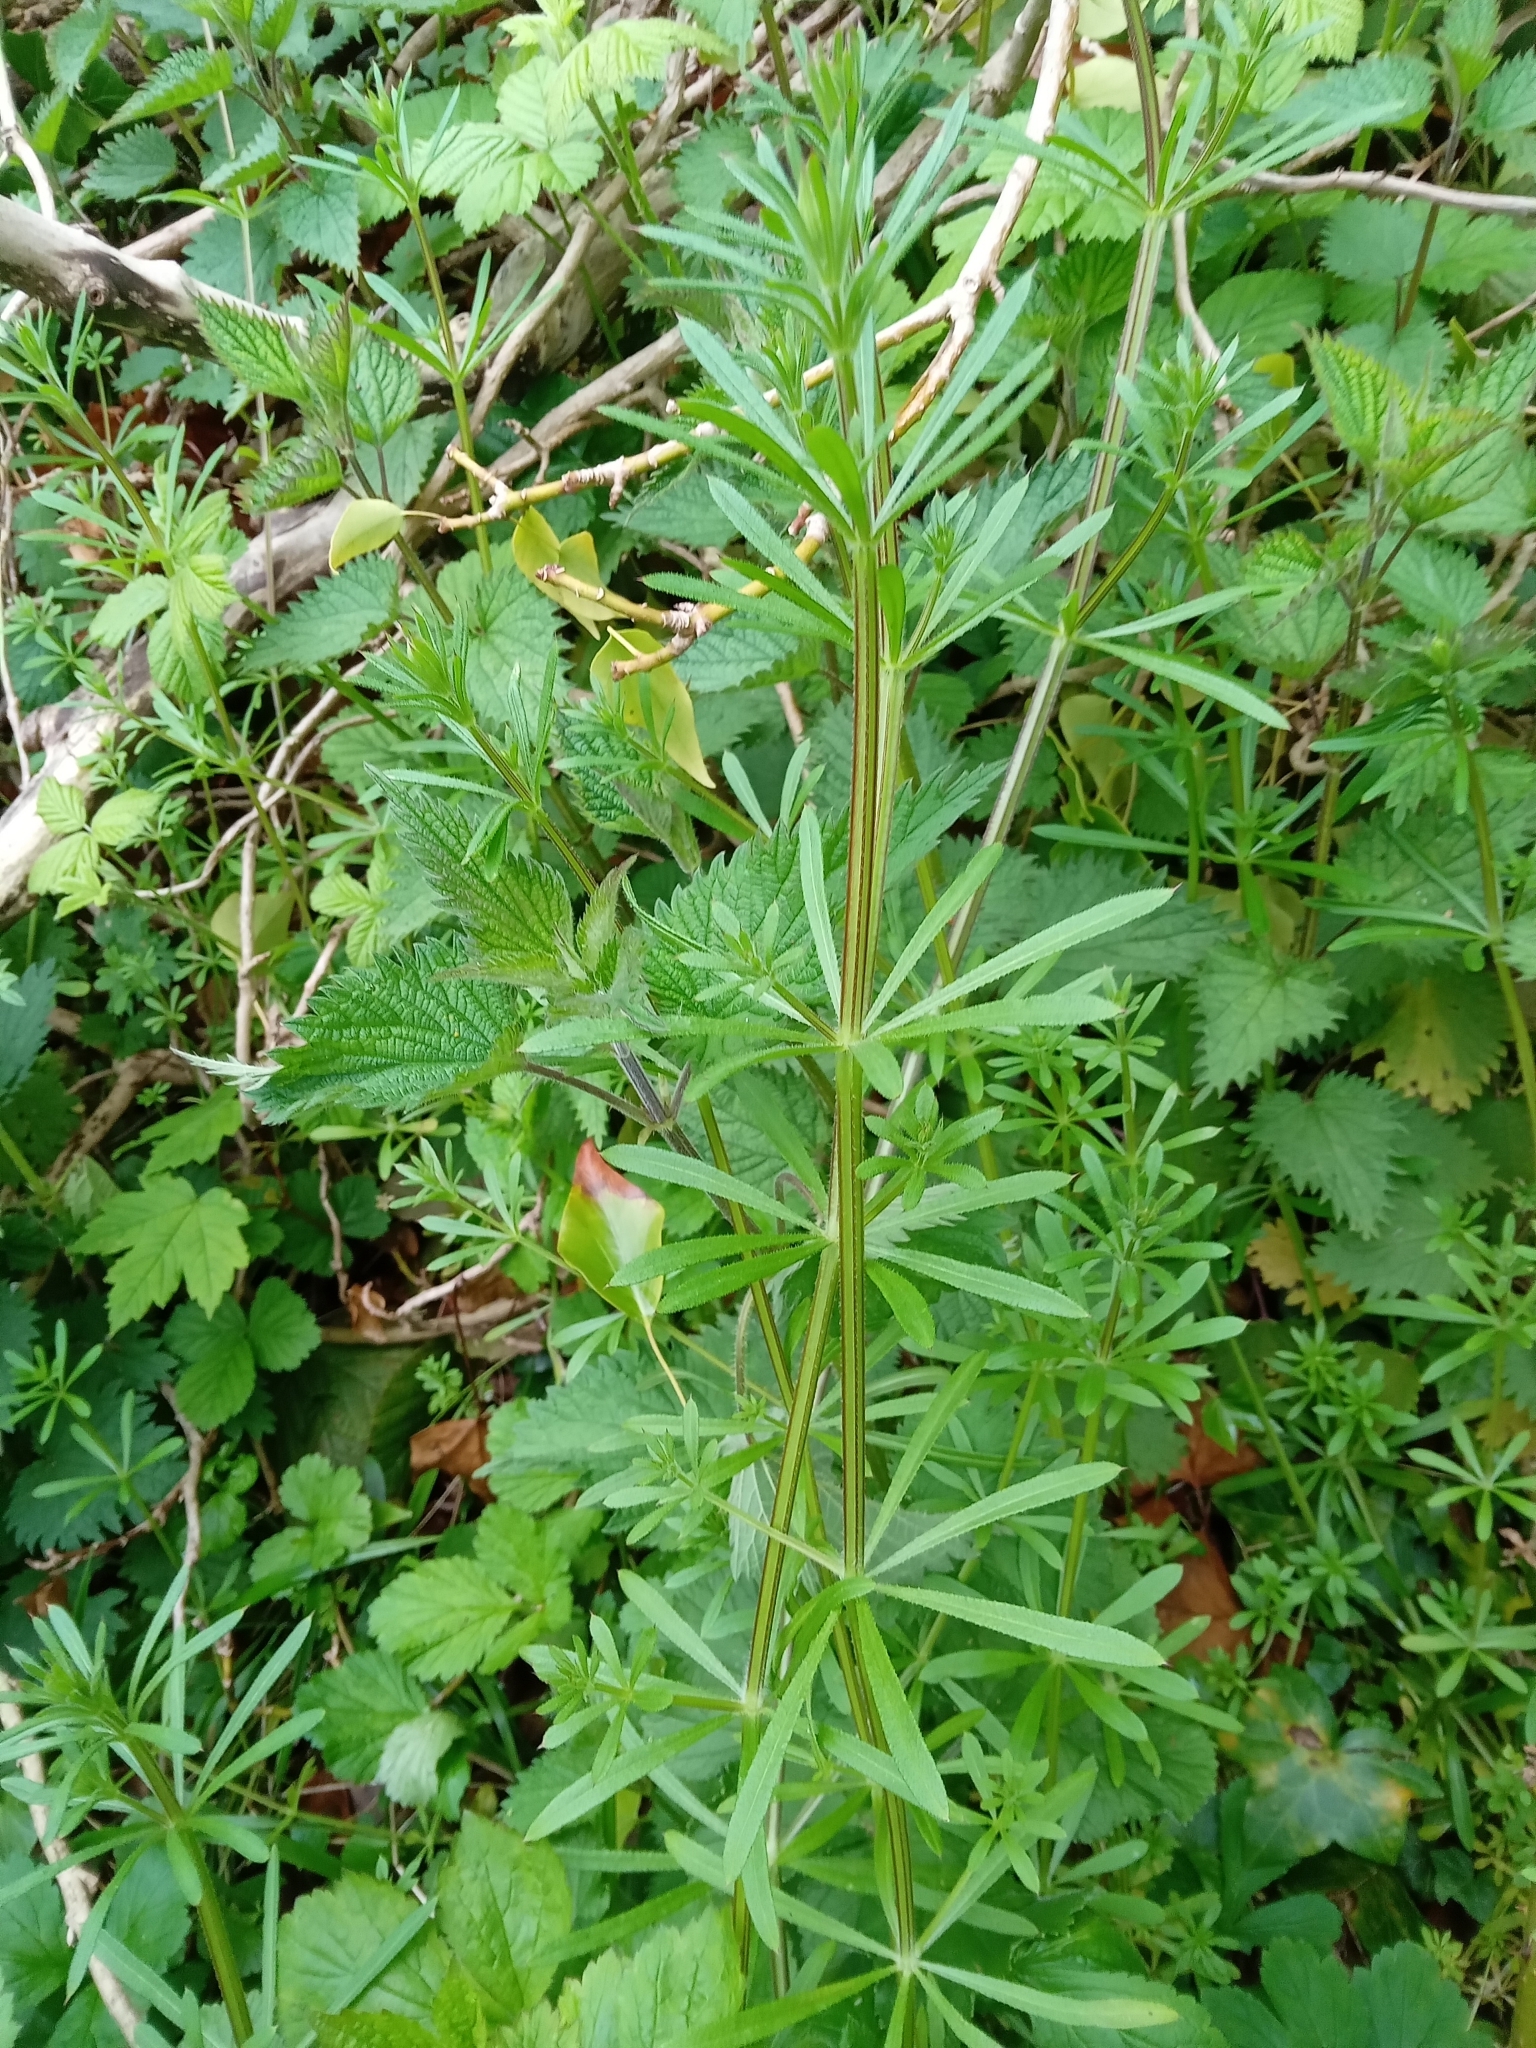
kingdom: Plantae
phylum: Tracheophyta
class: Magnoliopsida
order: Gentianales
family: Rubiaceae
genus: Galium
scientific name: Galium aparine
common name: Cleavers
